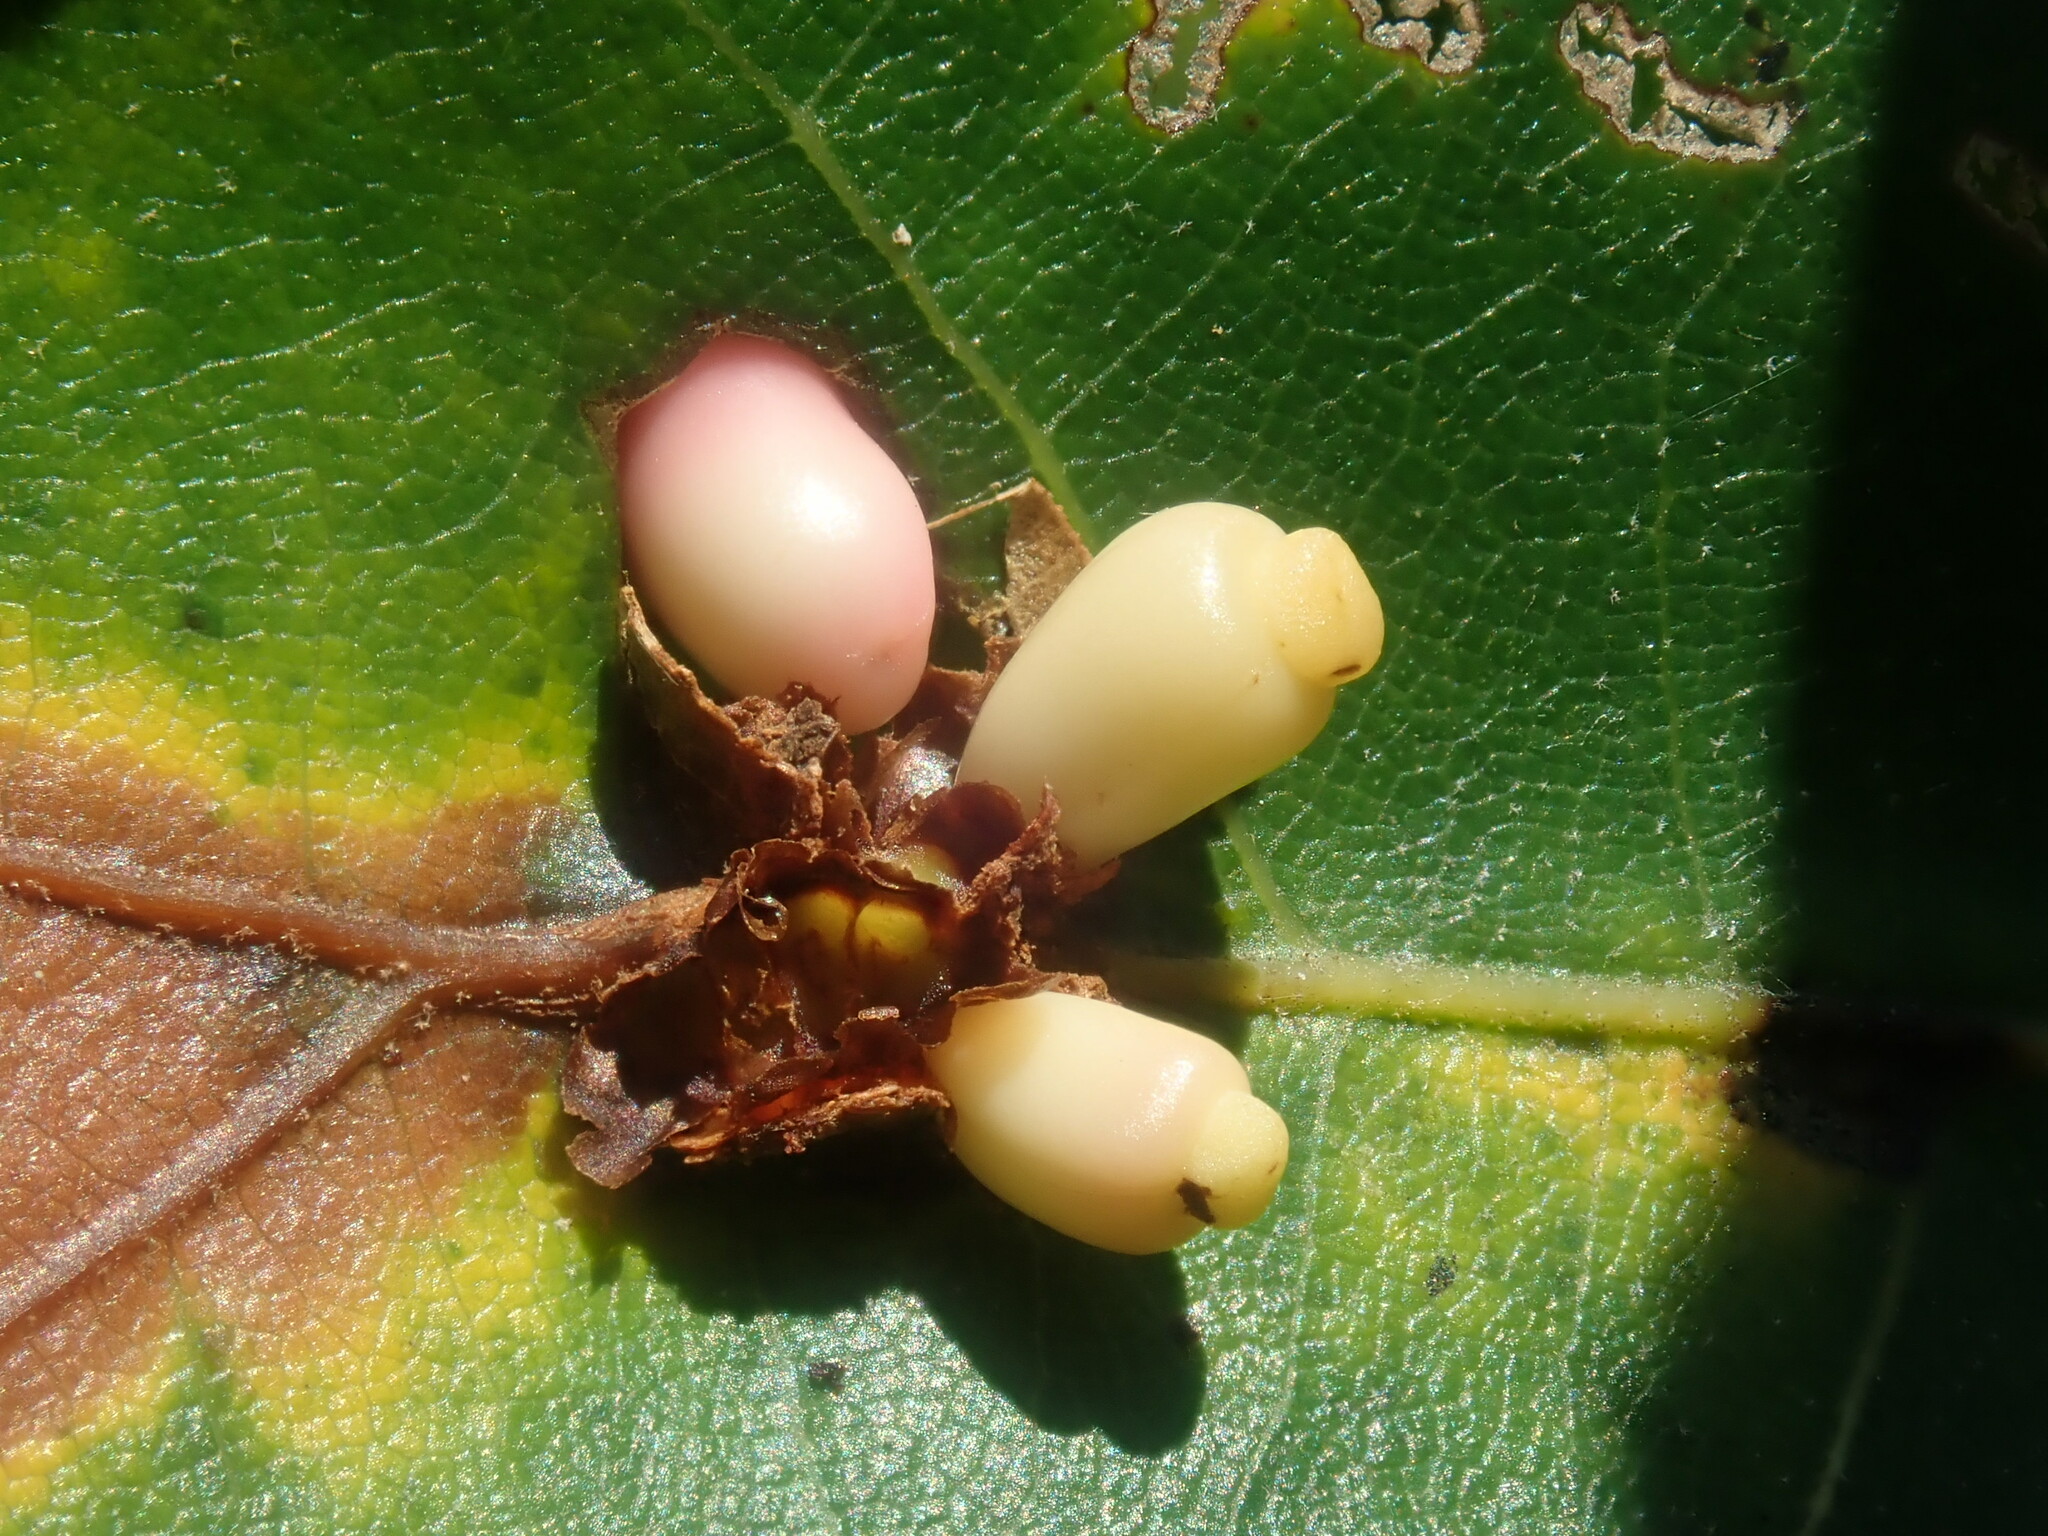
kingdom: Animalia
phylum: Arthropoda
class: Insecta
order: Hymenoptera
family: Cynipidae
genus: Kokkocynips
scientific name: Kokkocynips decidua
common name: Oak wheat gall
